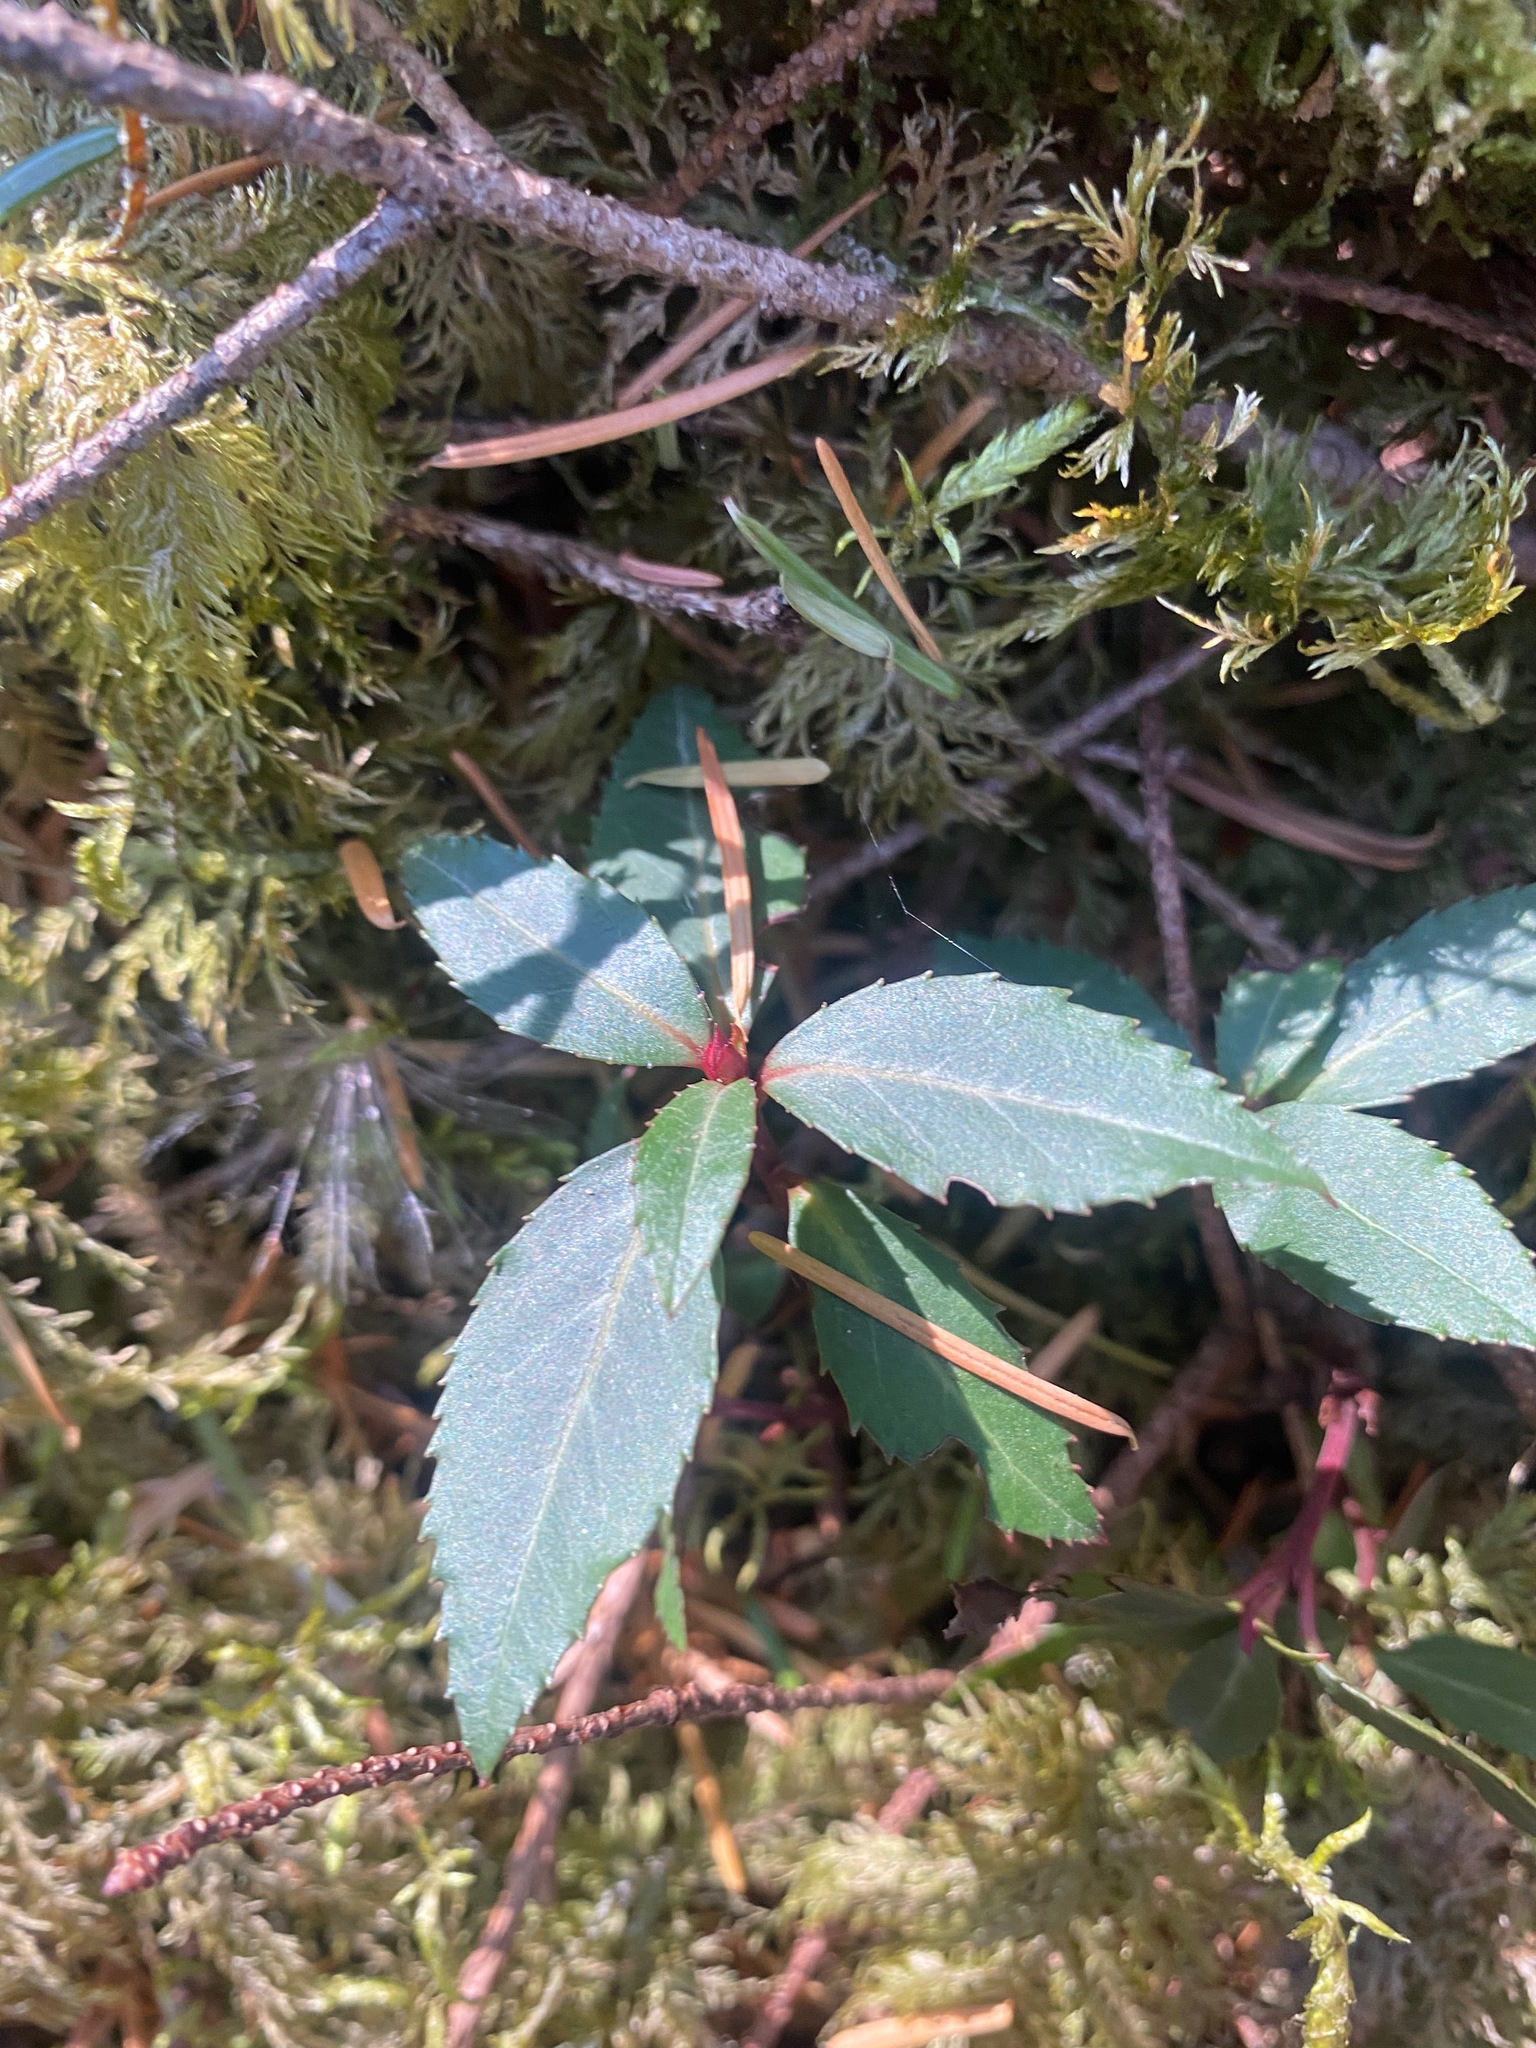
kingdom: Plantae
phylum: Tracheophyta
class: Magnoliopsida
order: Ericales
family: Ericaceae
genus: Chimaphila
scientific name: Chimaphila menziesii
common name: Menzies' pipsissewa
